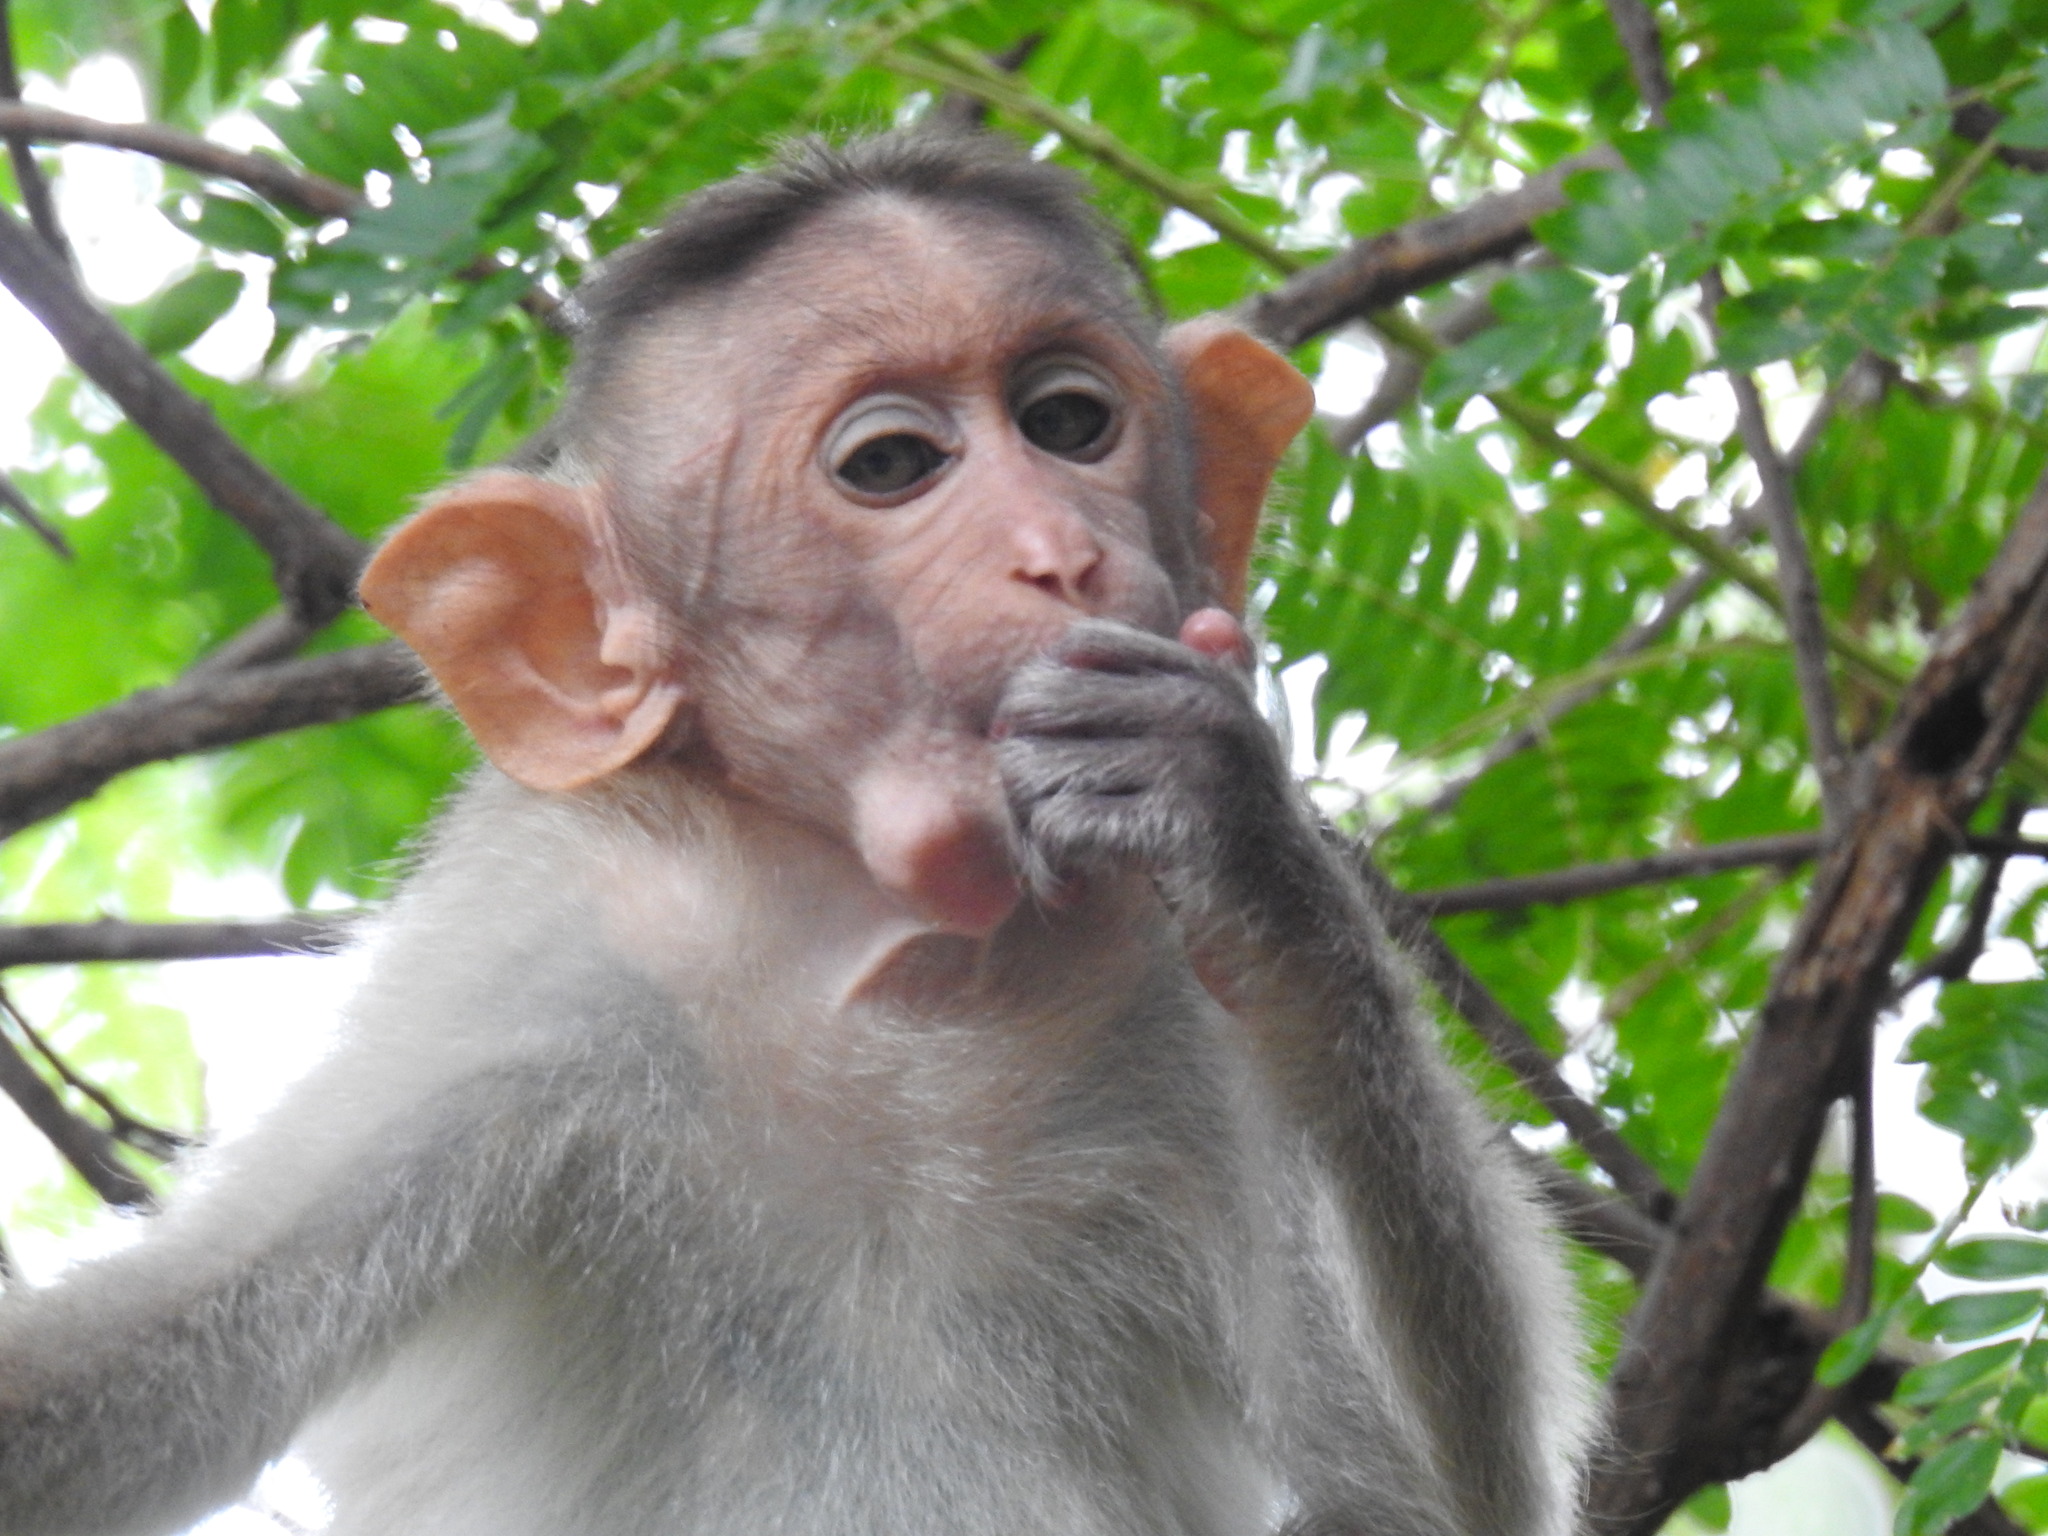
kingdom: Animalia
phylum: Chordata
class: Mammalia
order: Primates
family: Cercopithecidae
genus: Macaca
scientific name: Macaca radiata
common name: Bonnet macaque
